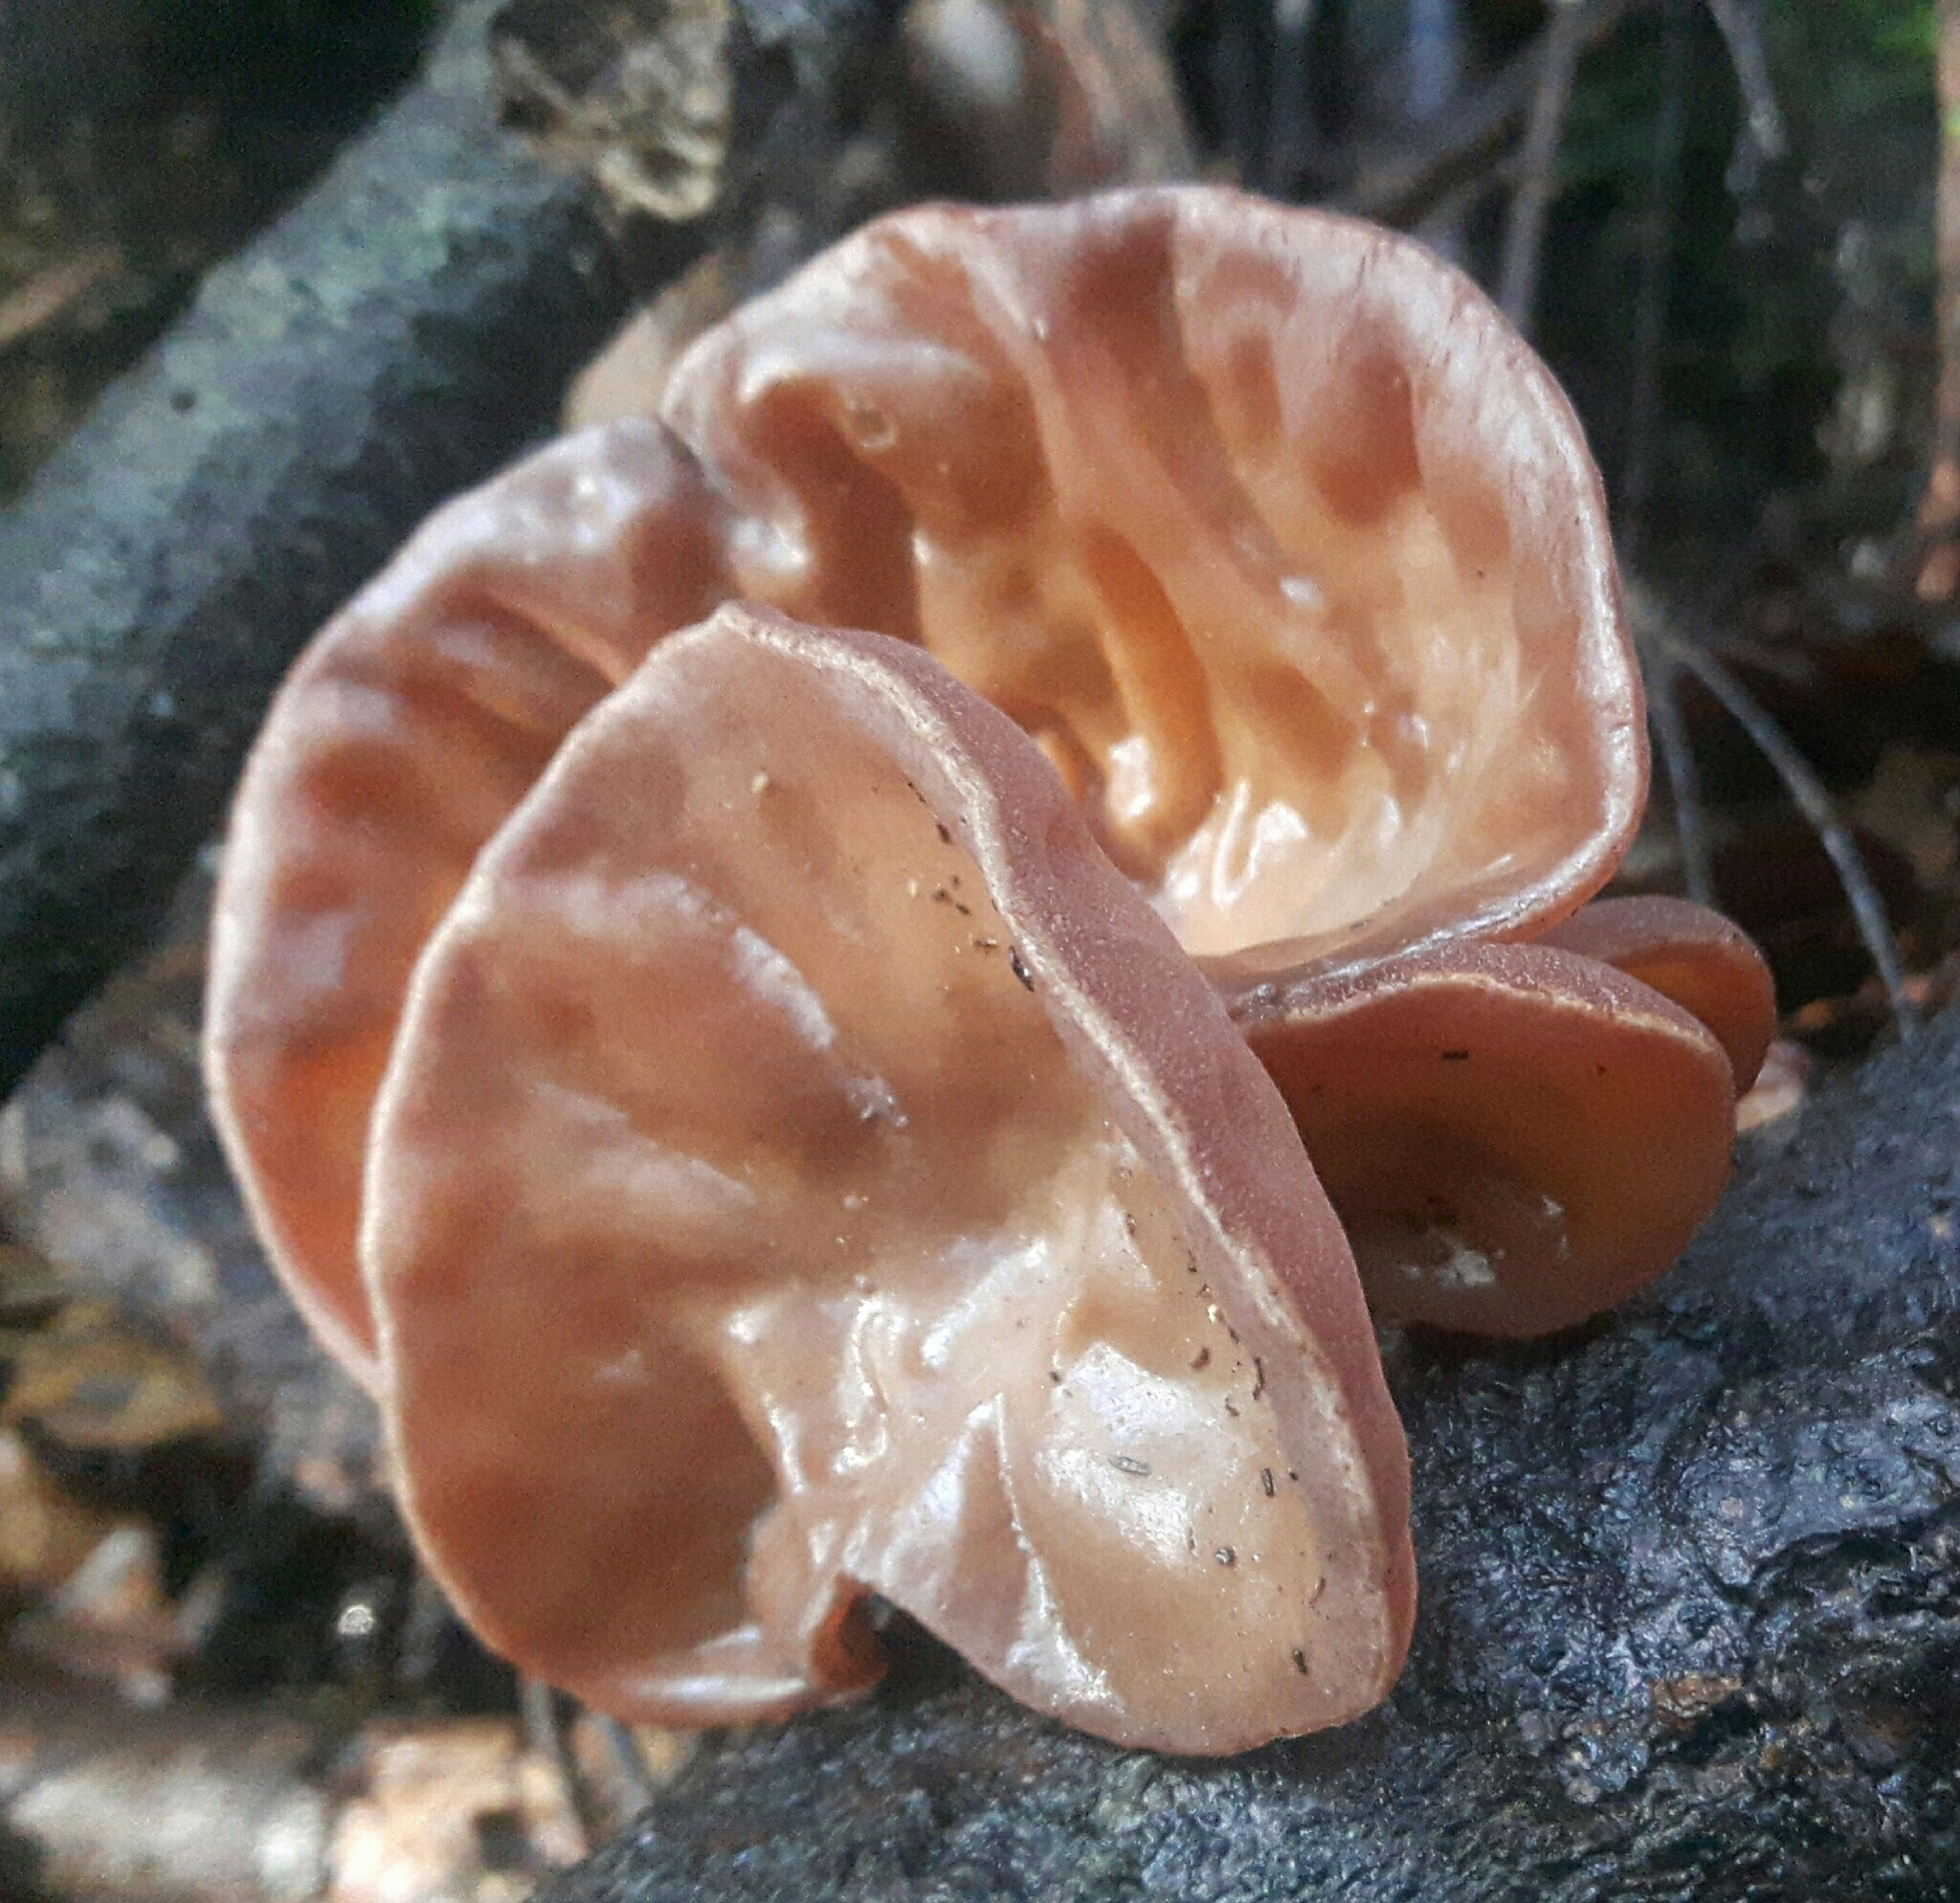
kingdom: Fungi
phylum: Basidiomycota
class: Agaricomycetes
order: Auriculariales
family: Auriculariaceae
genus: Auricularia
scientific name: Auricularia cornea
